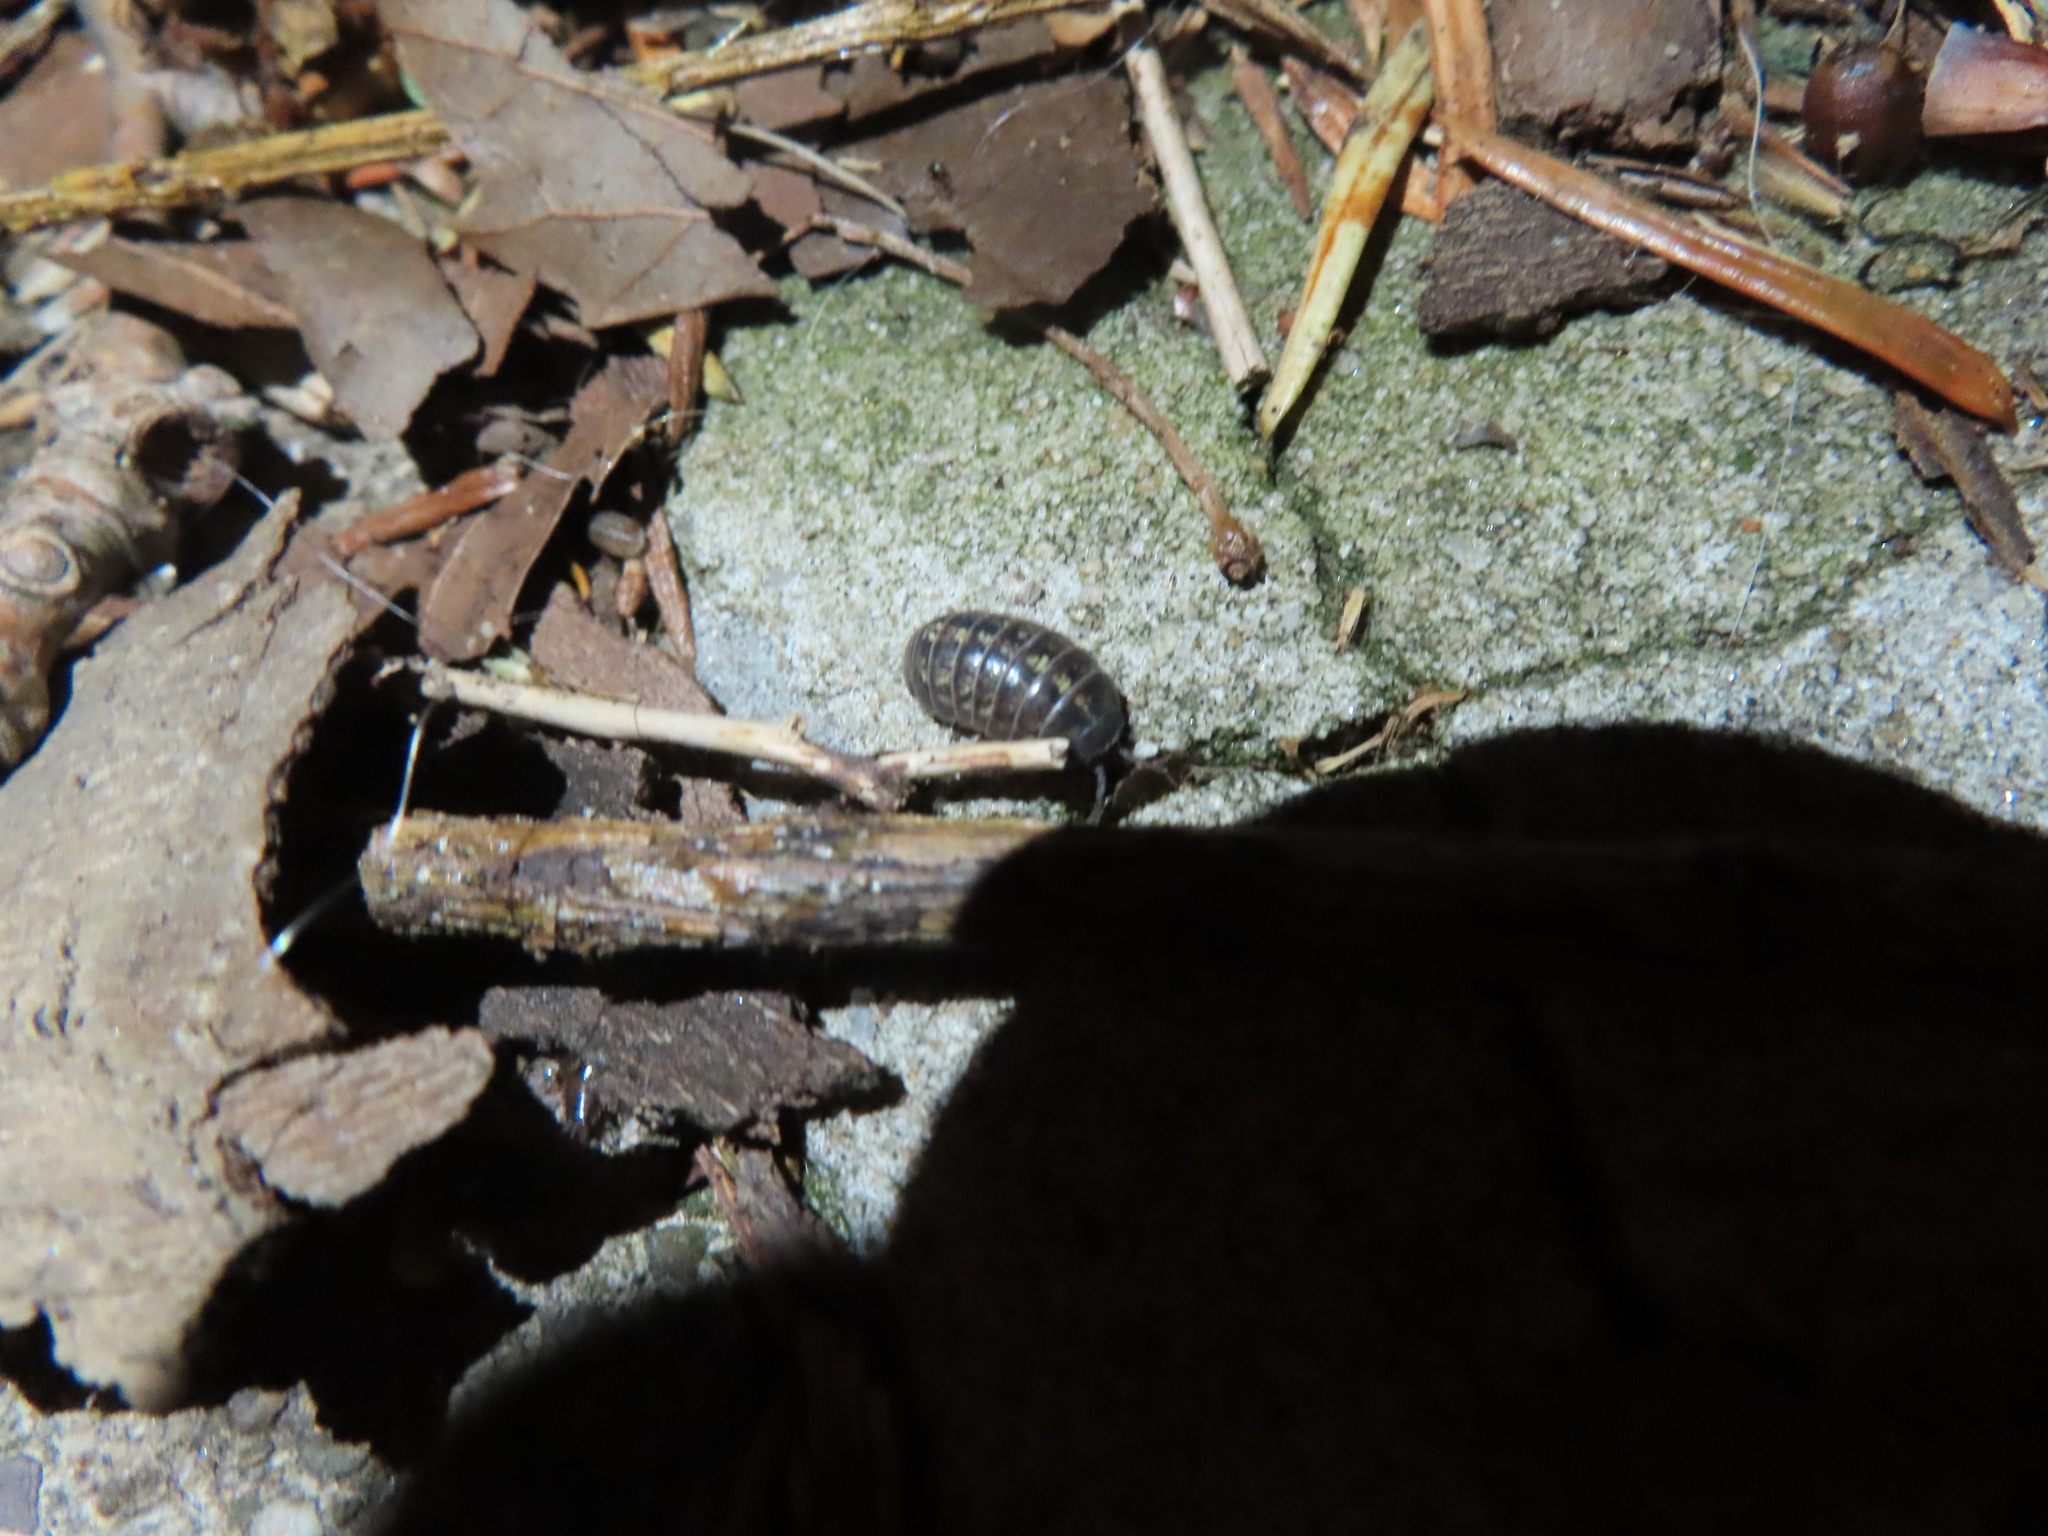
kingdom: Animalia
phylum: Arthropoda
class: Malacostraca
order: Isopoda
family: Armadillidiidae
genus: Armadillidium
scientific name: Armadillidium vulgare
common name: Common pill woodlouse
